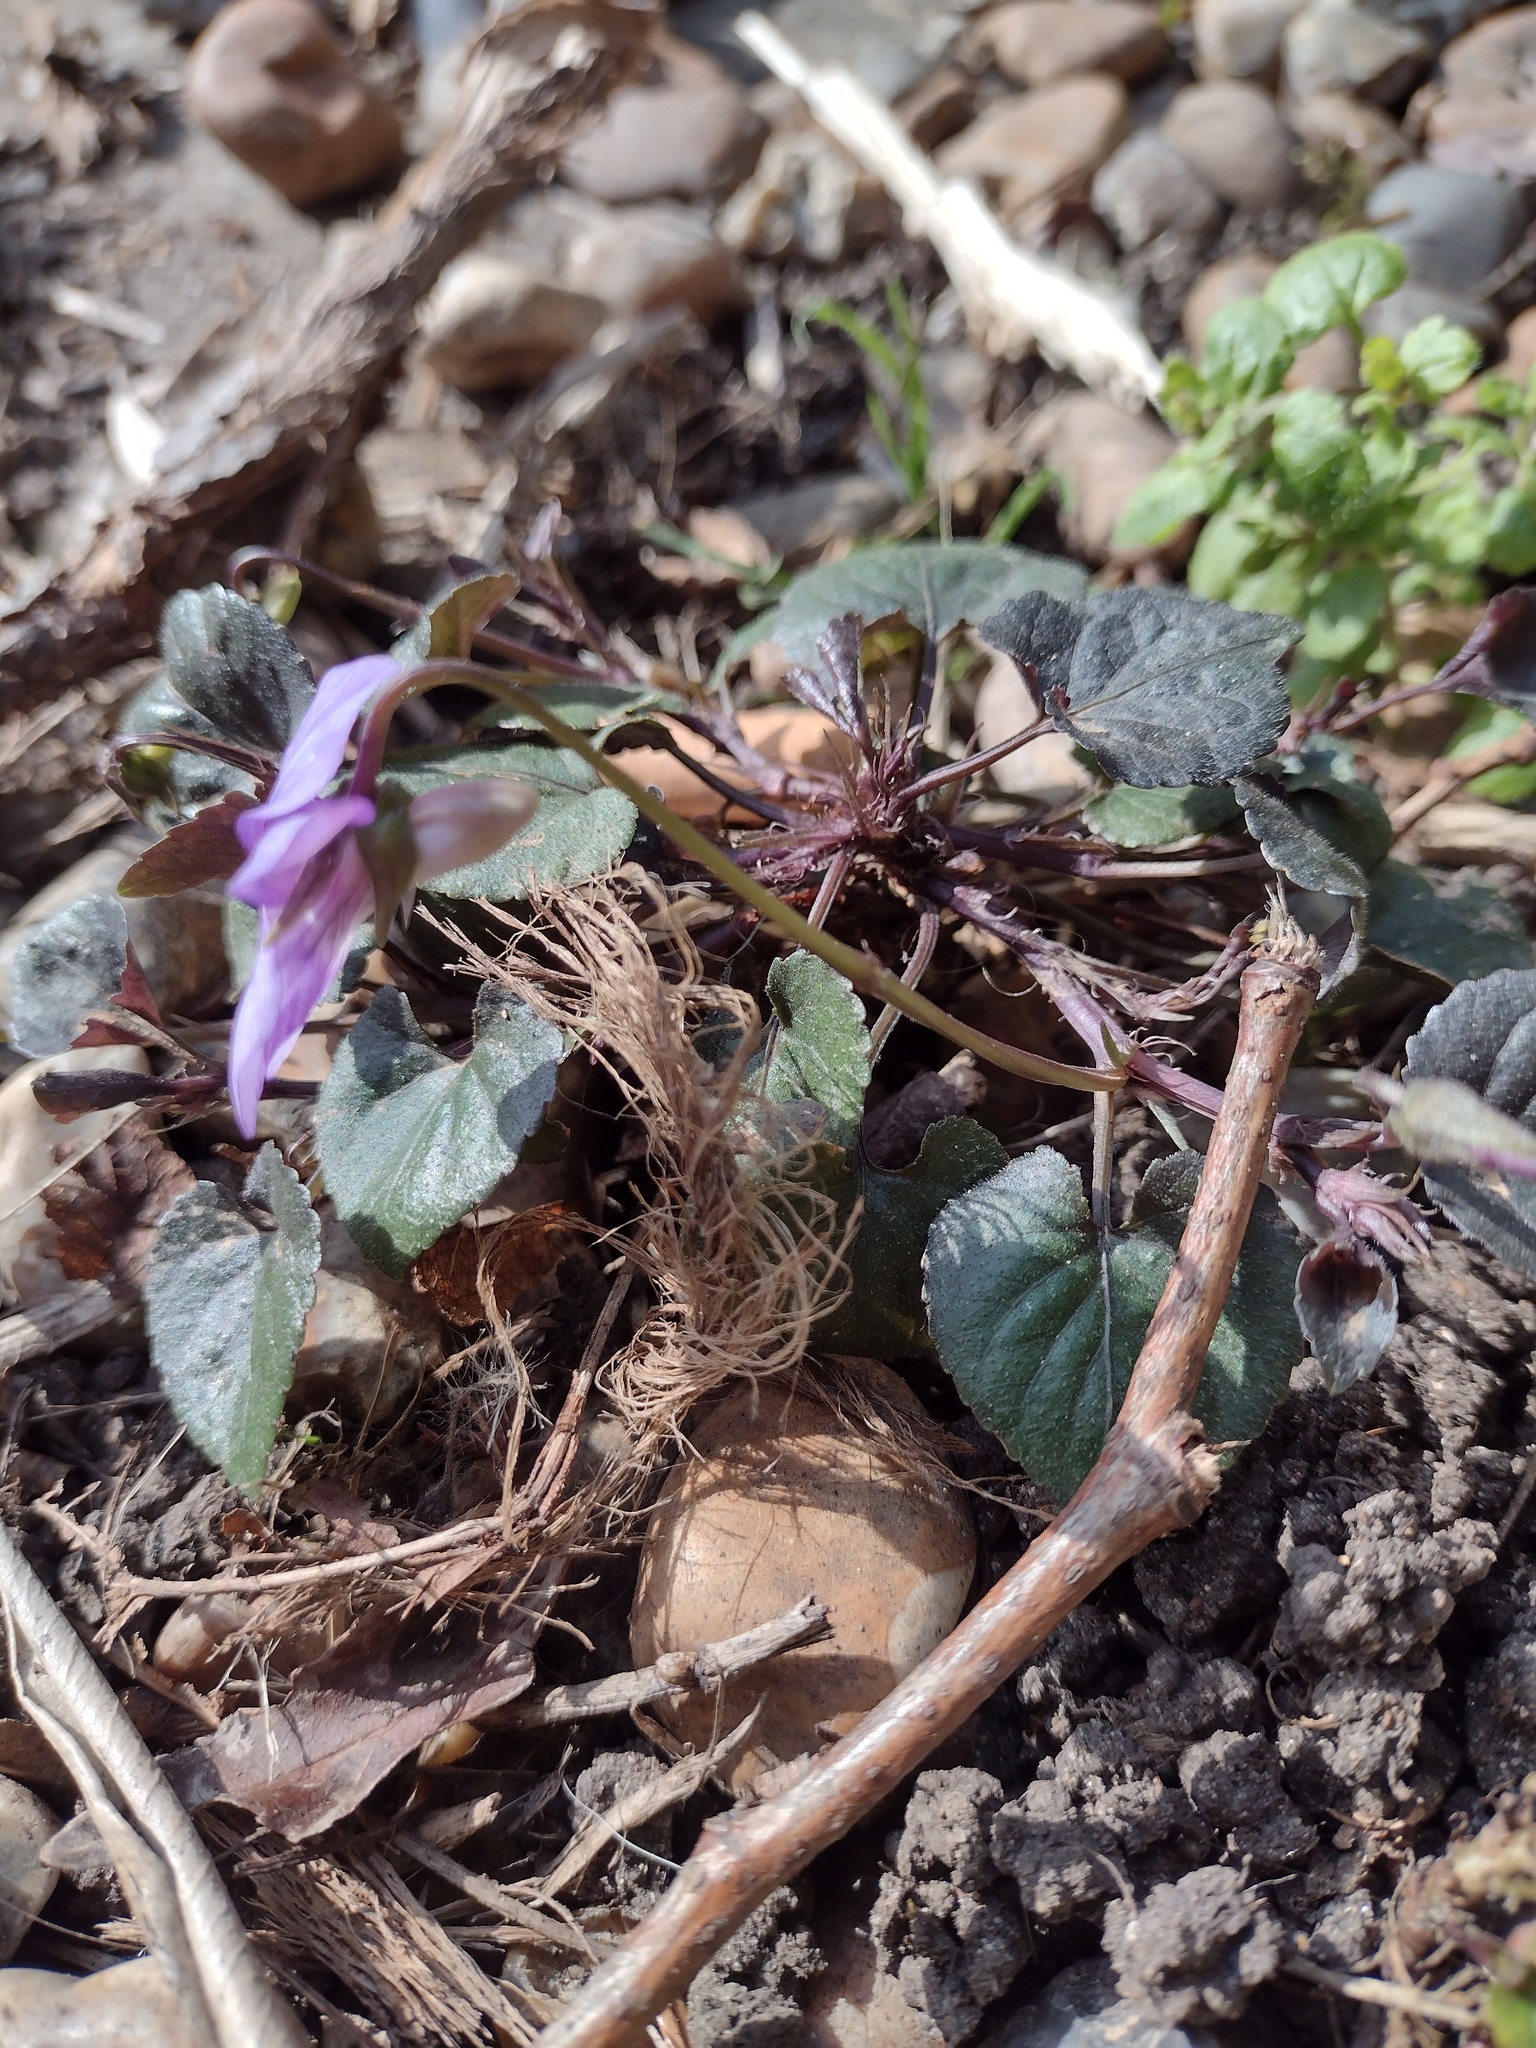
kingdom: Plantae
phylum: Tracheophyta
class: Magnoliopsida
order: Malpighiales
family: Violaceae
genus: Viola
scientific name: Viola riviniana
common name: Common dog-violet
